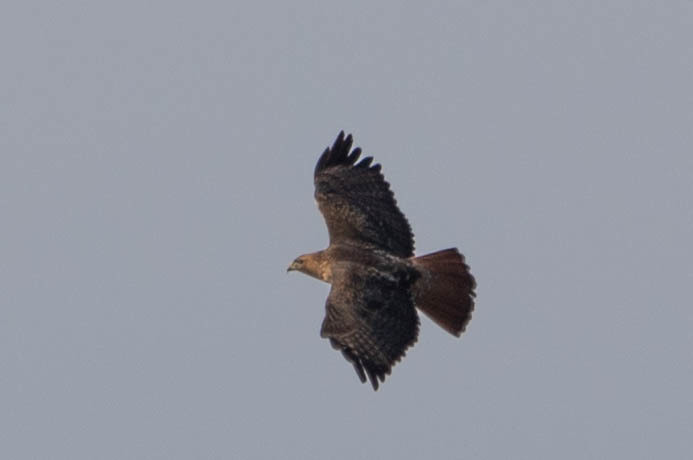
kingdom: Animalia
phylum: Chordata
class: Aves
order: Accipitriformes
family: Accipitridae
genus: Buteo
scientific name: Buteo jamaicensis
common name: Red-tailed hawk
